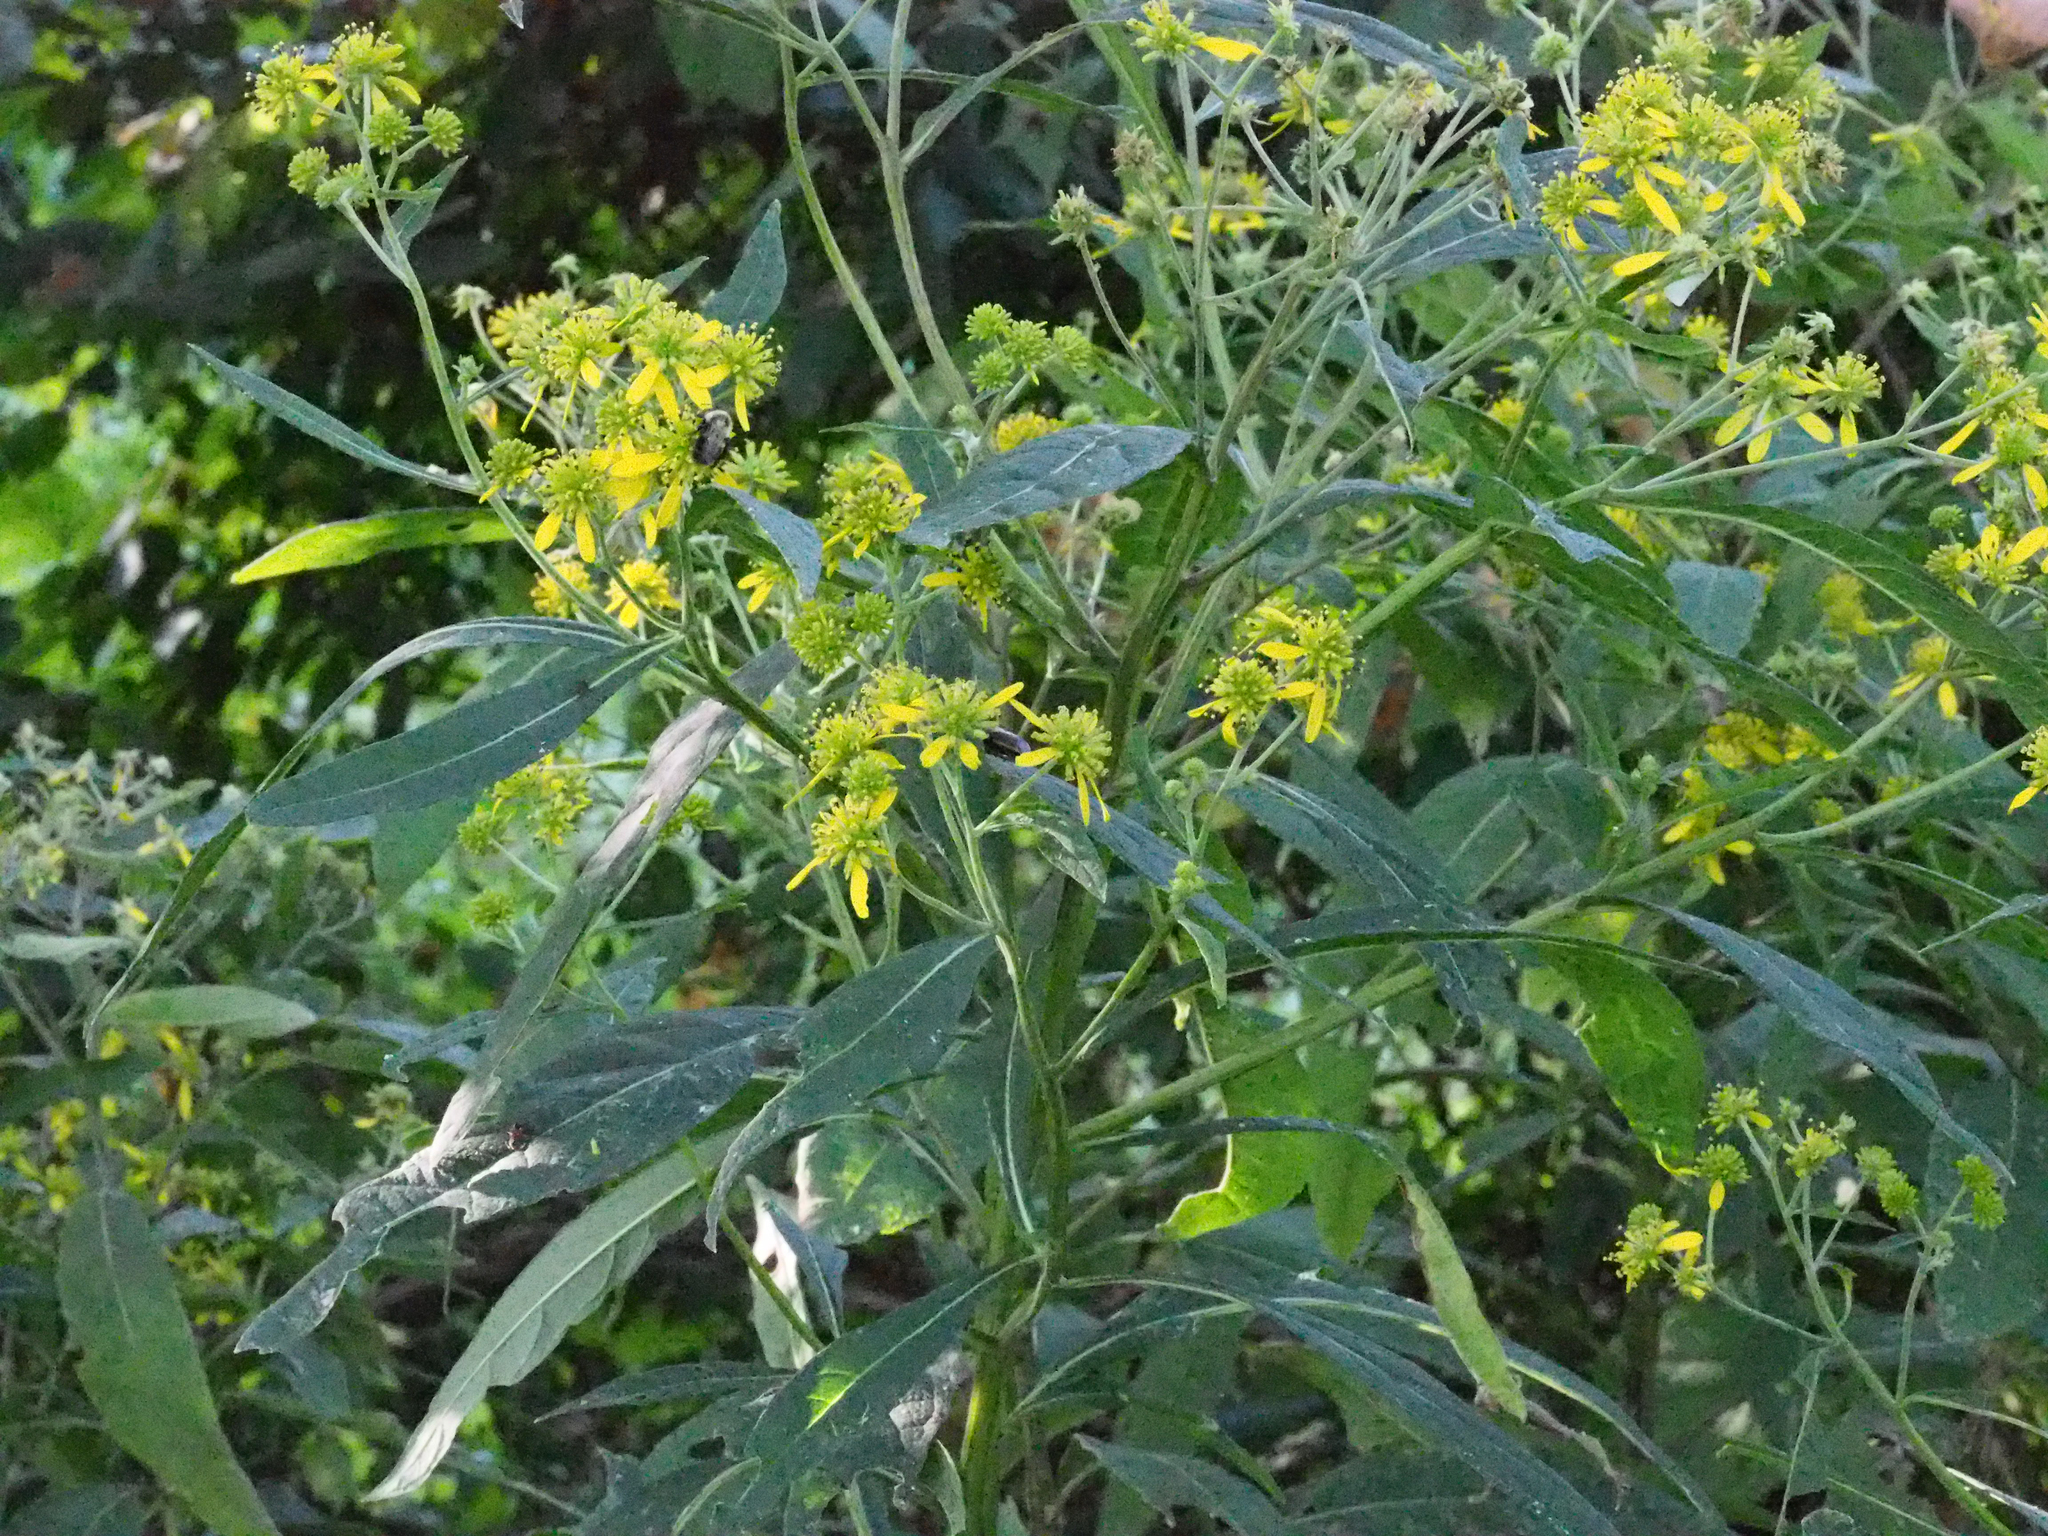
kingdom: Plantae
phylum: Tracheophyta
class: Magnoliopsida
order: Asterales
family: Asteraceae
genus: Verbesina
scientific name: Verbesina alternifolia
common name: Wingstem
